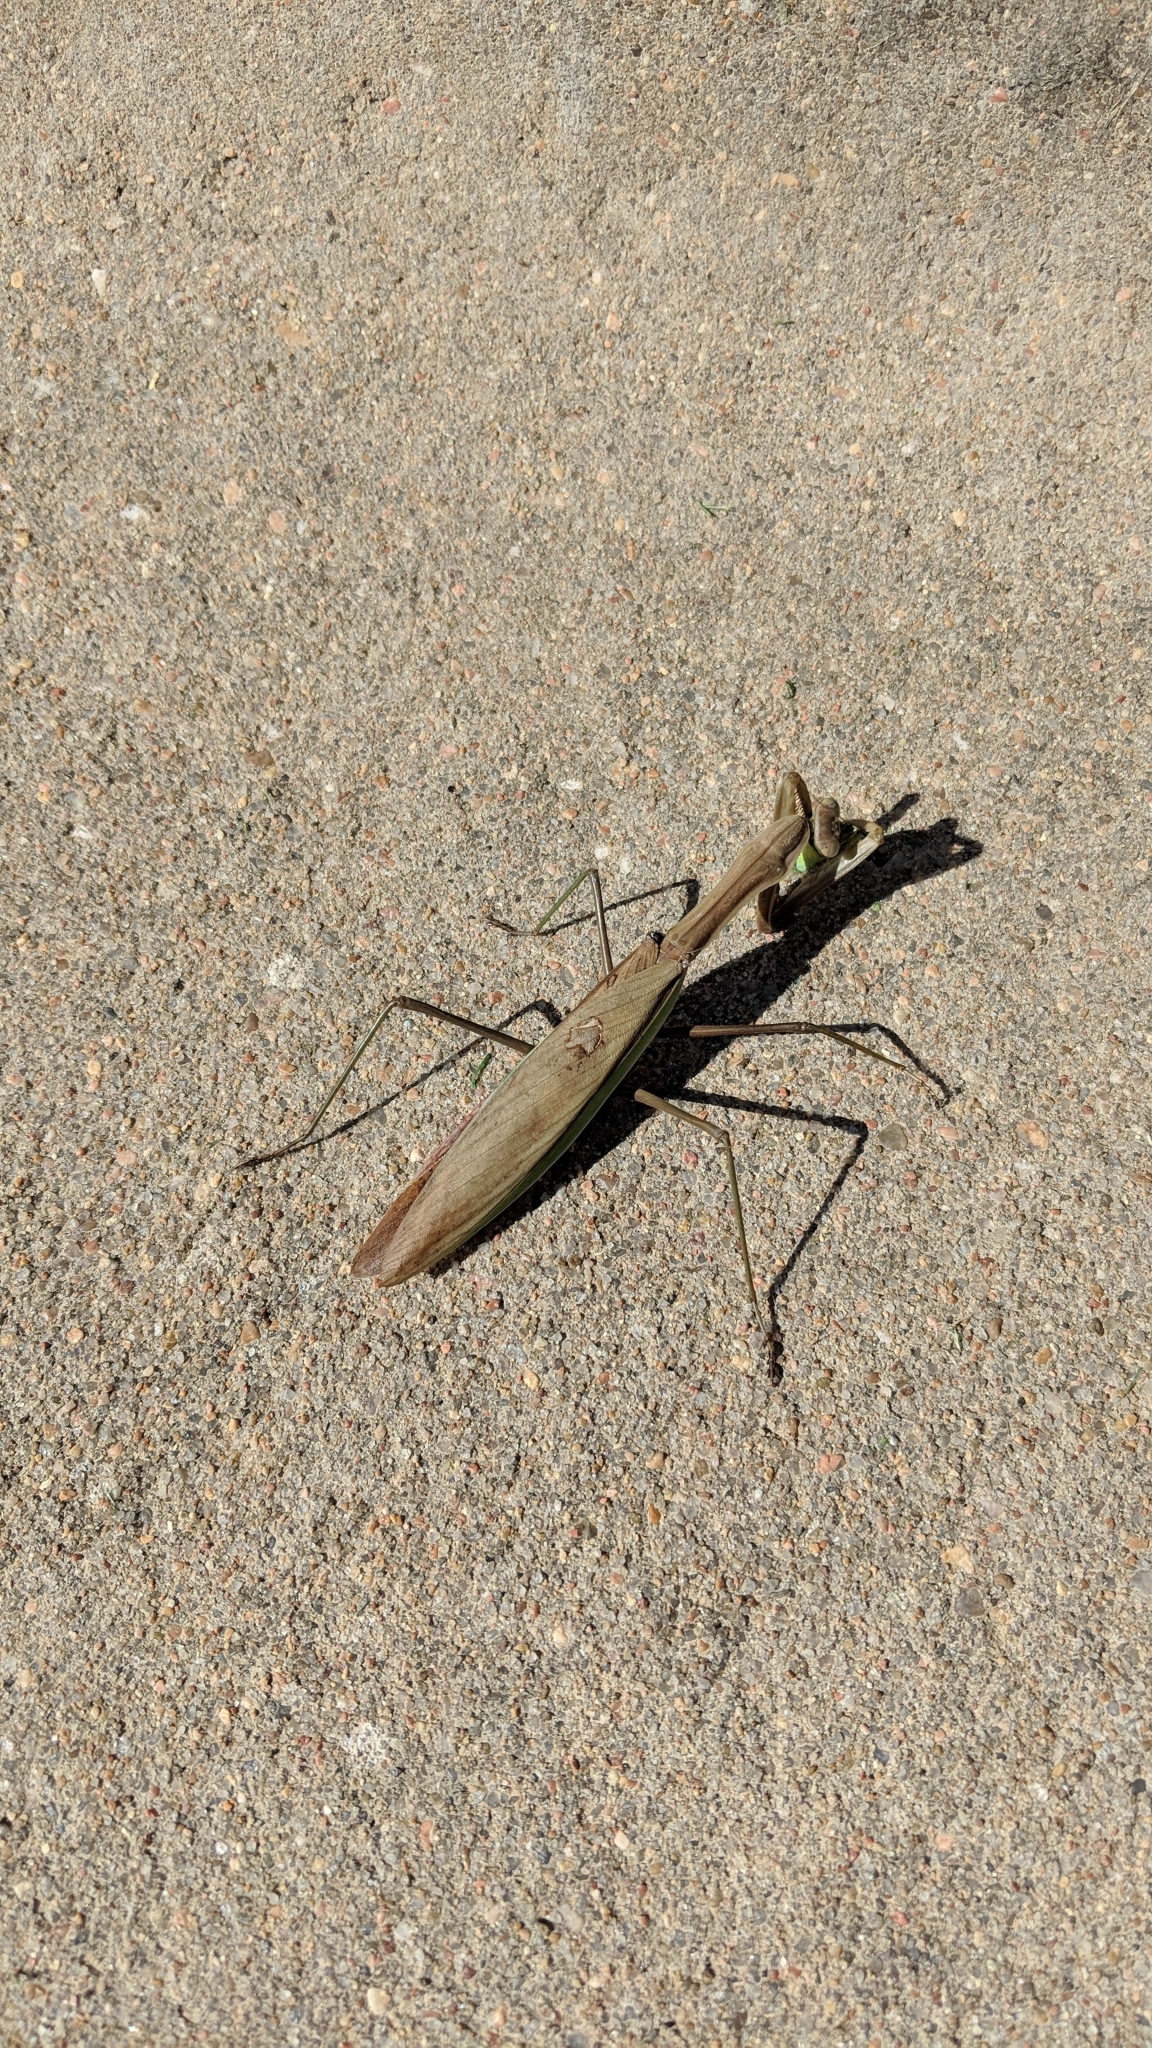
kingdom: Animalia
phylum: Arthropoda
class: Insecta
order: Mantodea
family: Mantidae
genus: Tenodera
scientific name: Tenodera sinensis
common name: Chinese mantis
